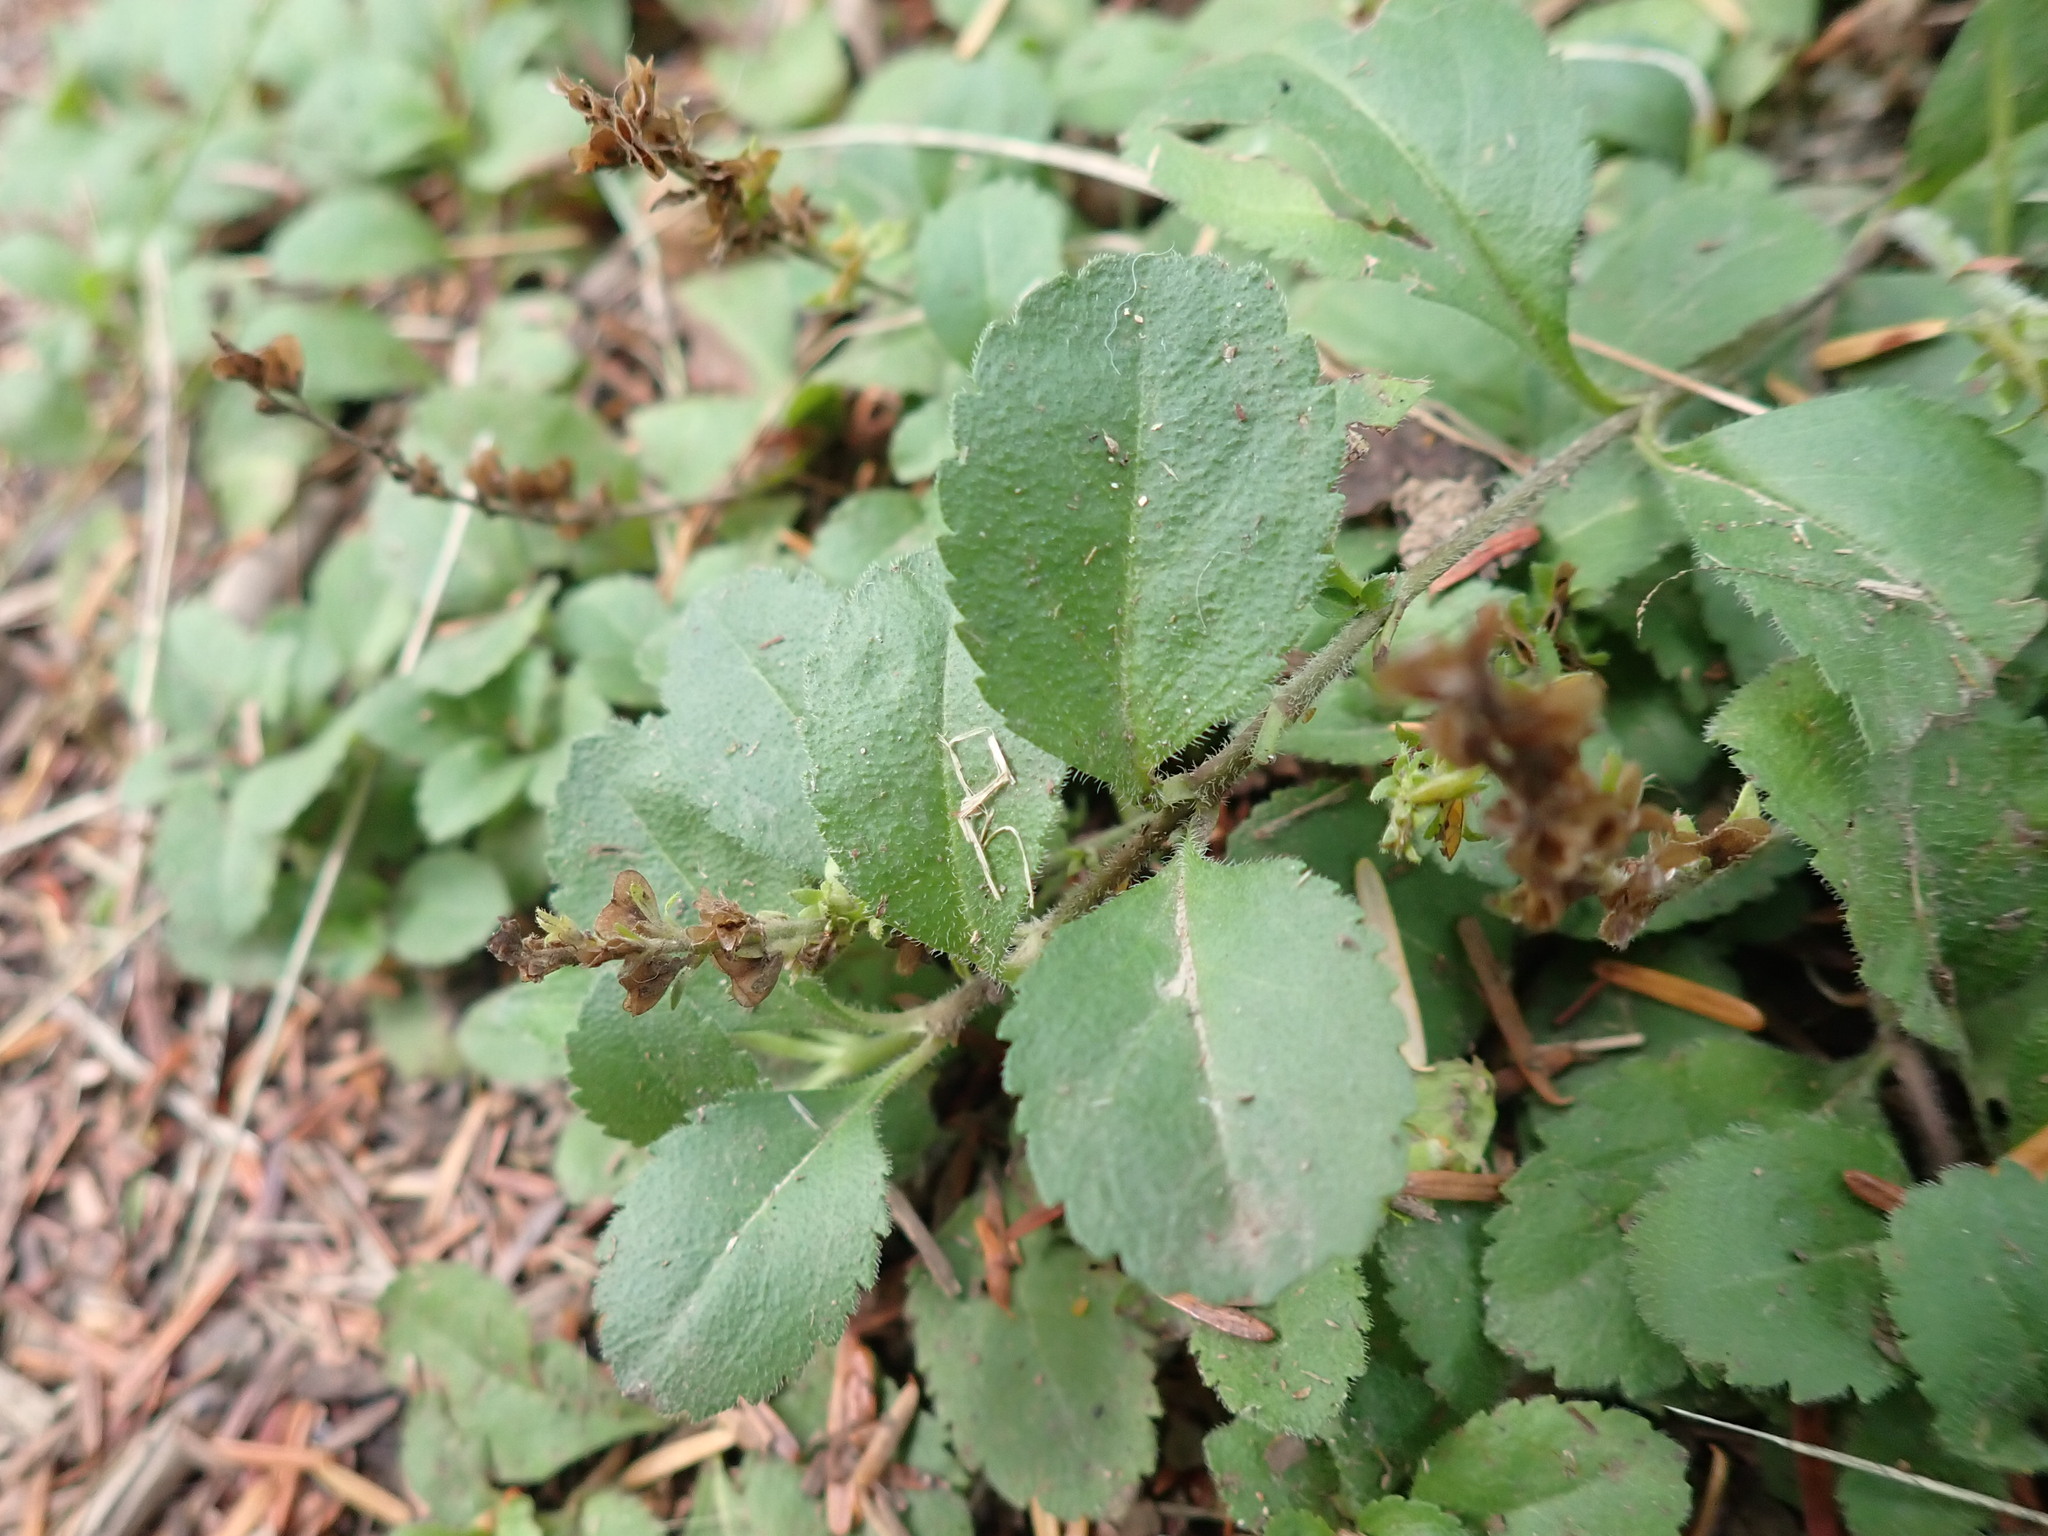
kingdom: Plantae
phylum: Tracheophyta
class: Magnoliopsida
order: Lamiales
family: Plantaginaceae
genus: Veronica
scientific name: Veronica officinalis
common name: Common speedwell
